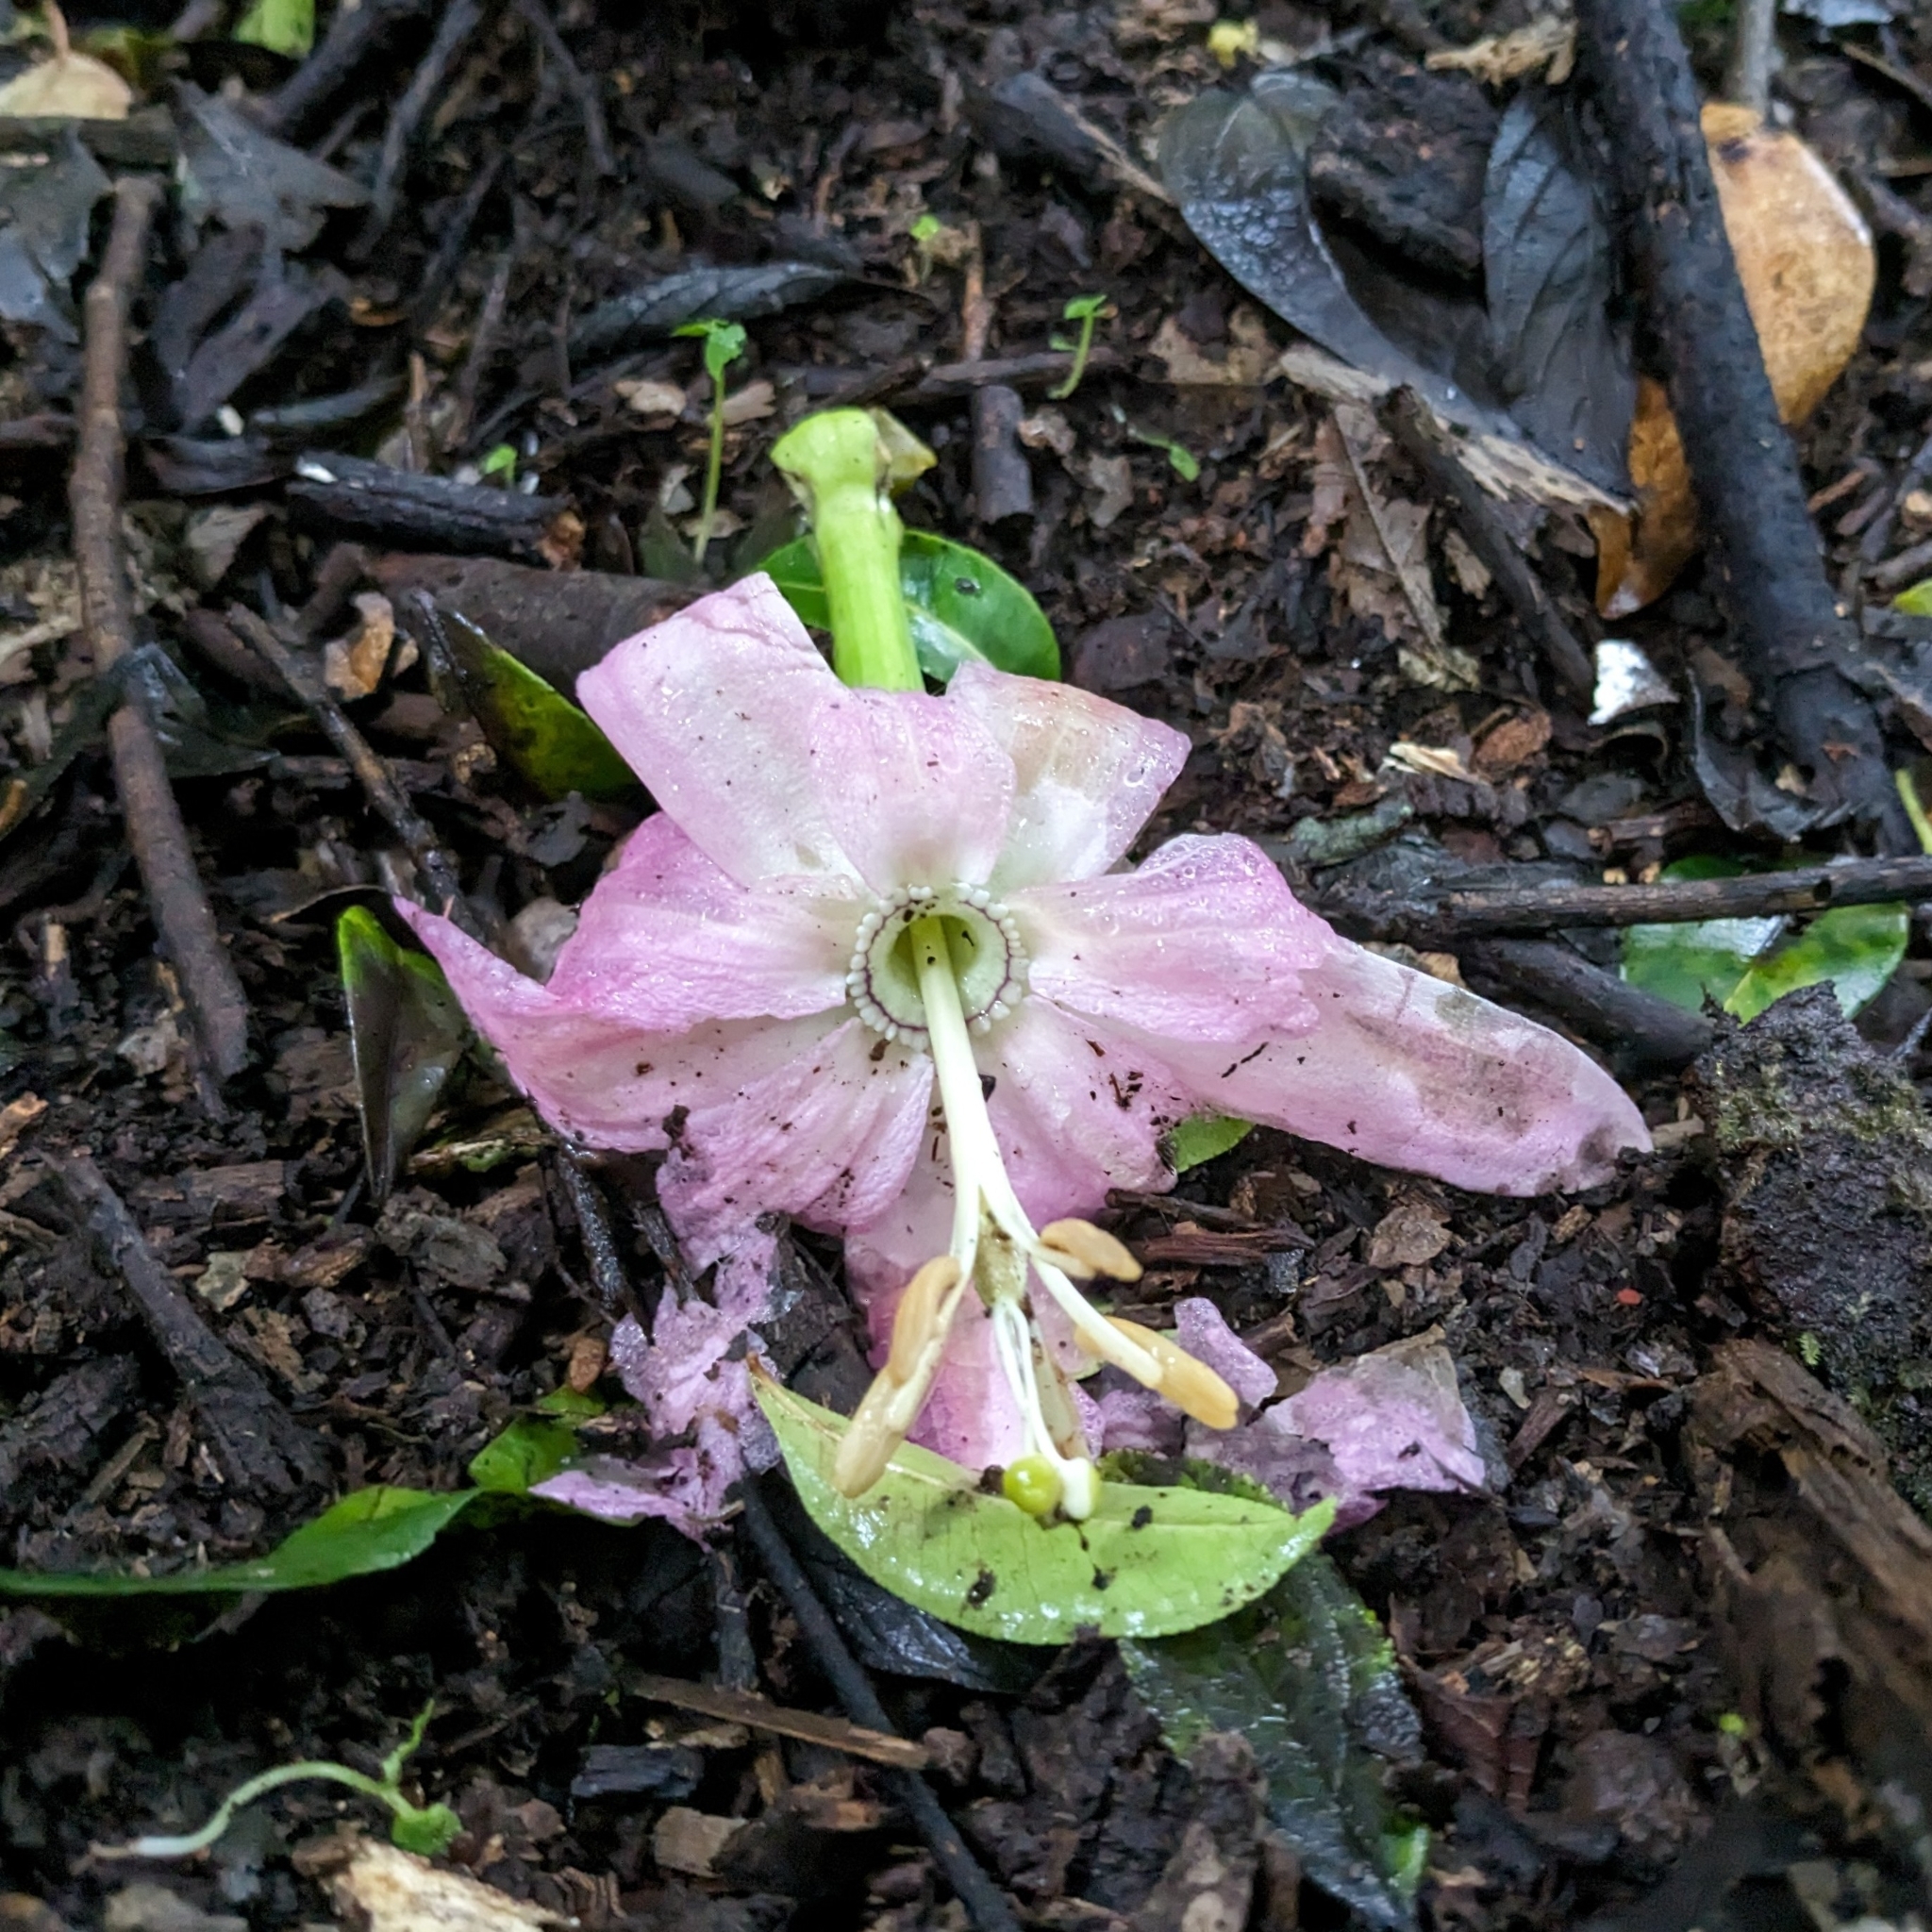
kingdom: Plantae
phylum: Tracheophyta
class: Magnoliopsida
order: Malpighiales
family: Passifloraceae
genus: Passiflora
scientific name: Passiflora tarminiana
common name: Banana poka
